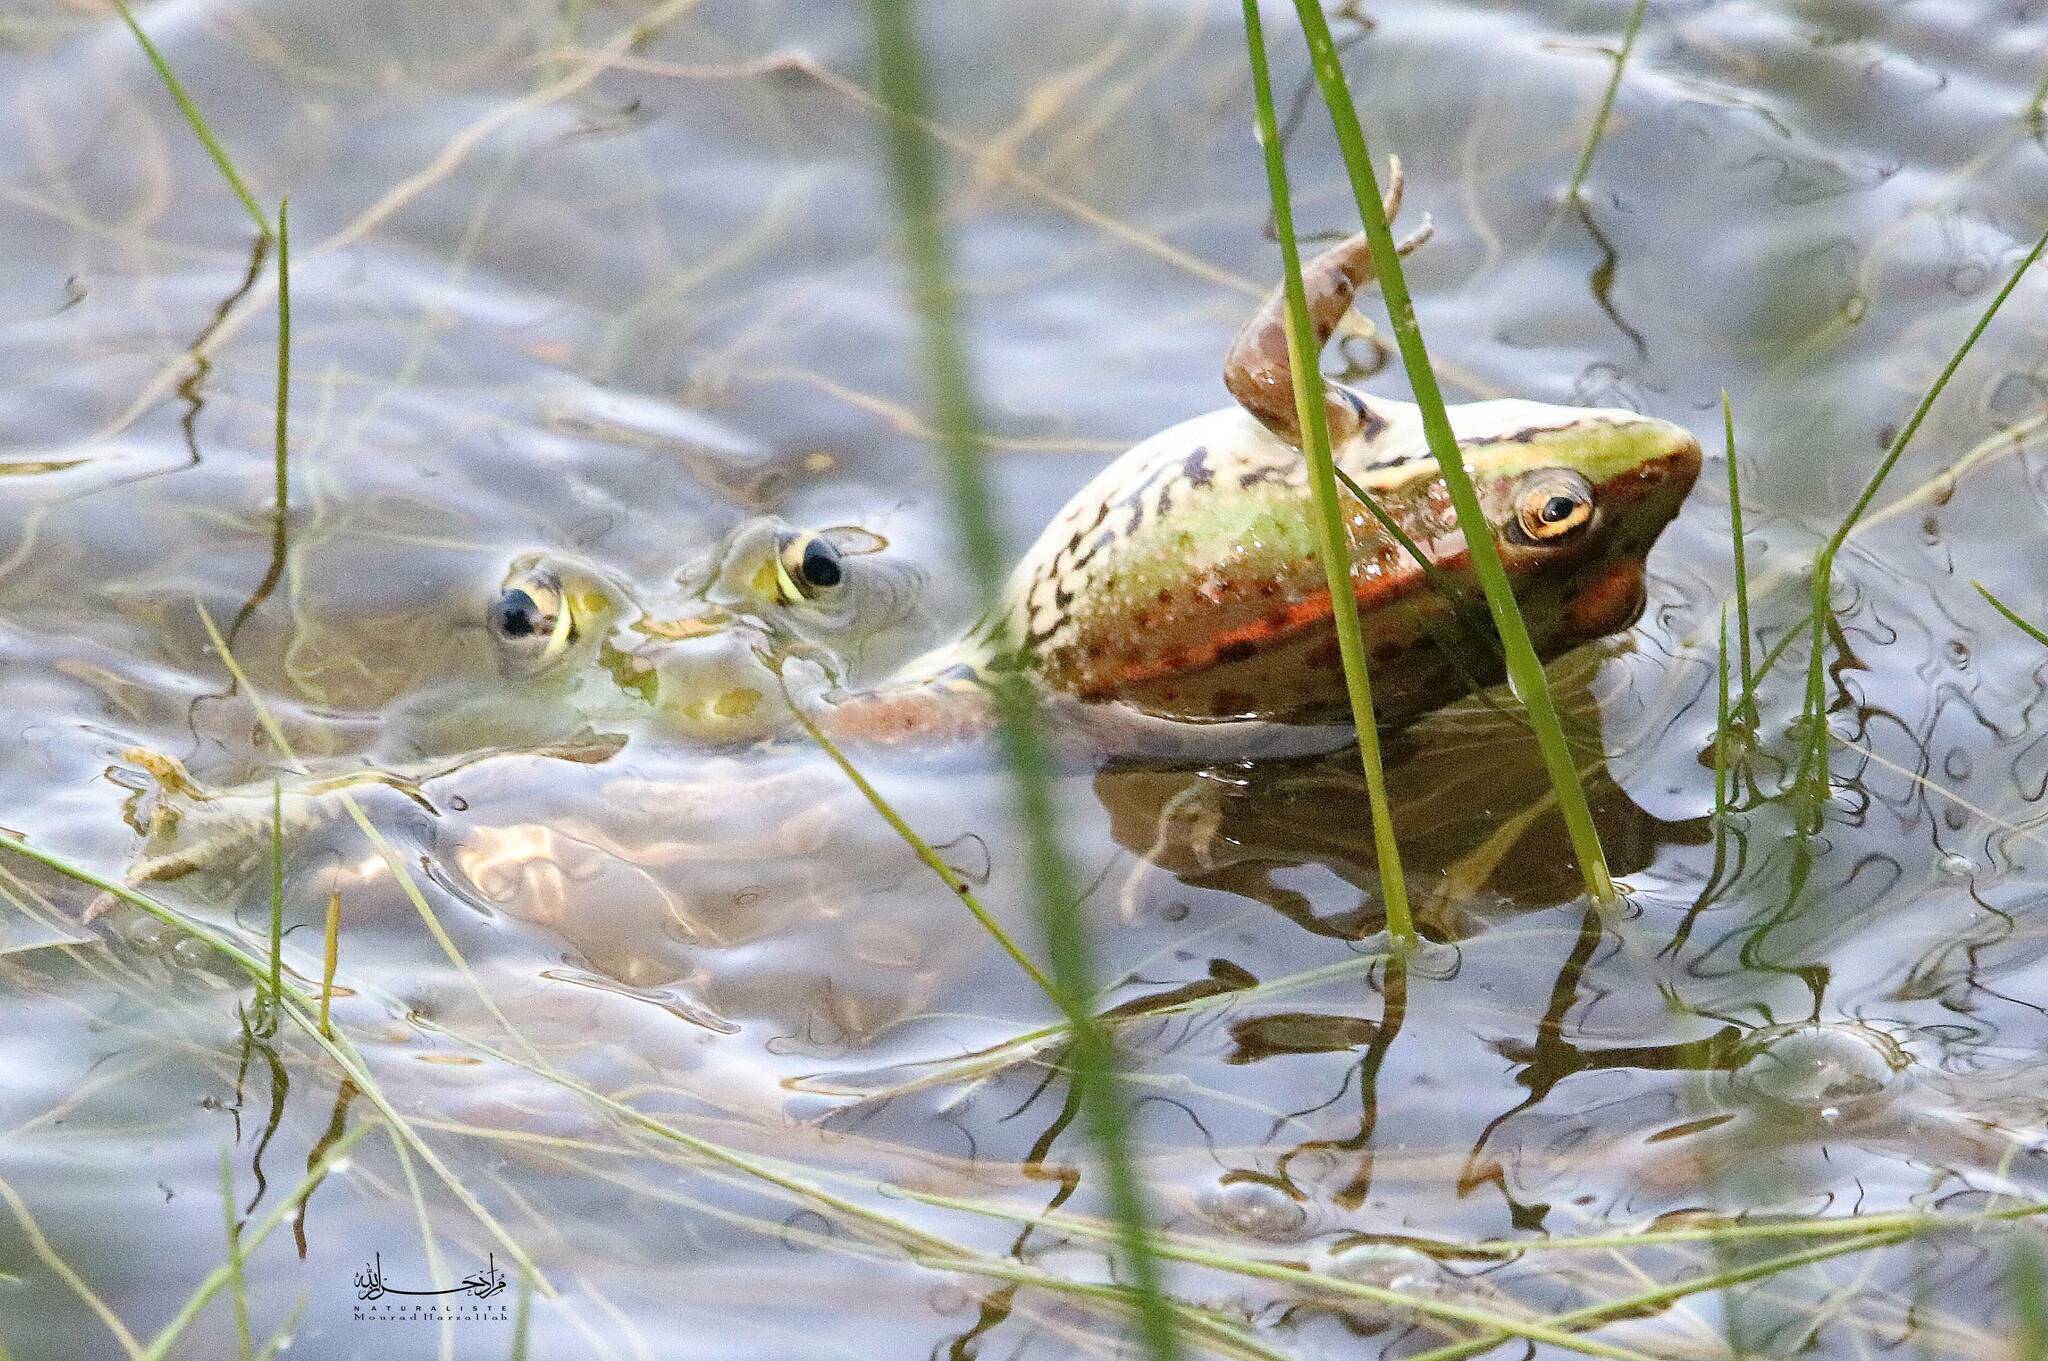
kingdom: Animalia
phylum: Chordata
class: Amphibia
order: Anura
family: Ranidae
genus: Pelophylax
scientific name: Pelophylax saharicus
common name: Sahara frog
